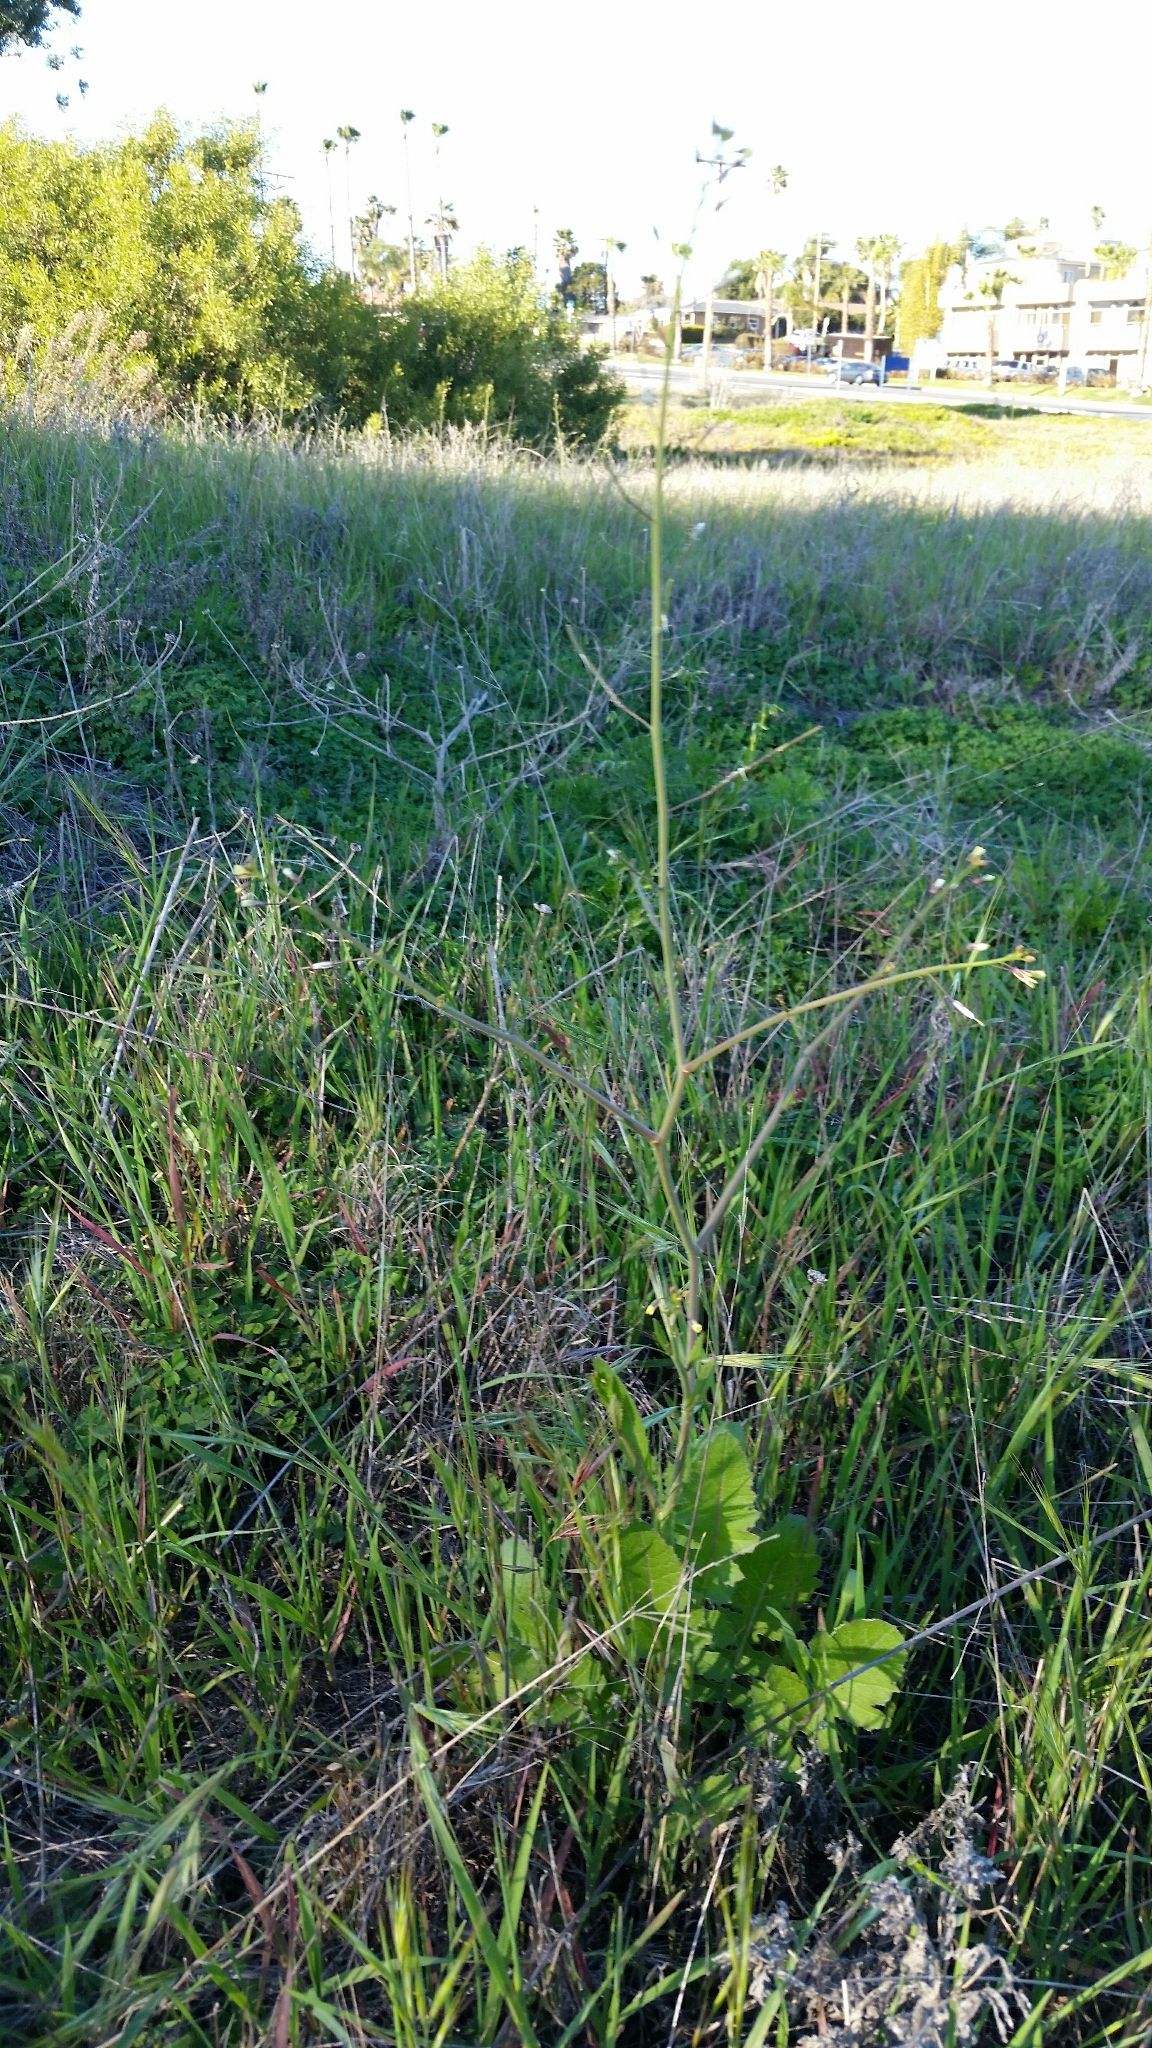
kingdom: Plantae
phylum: Tracheophyta
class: Magnoliopsida
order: Brassicales
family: Brassicaceae
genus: Brassica
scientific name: Brassica tournefortii
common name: Pale cabbage
